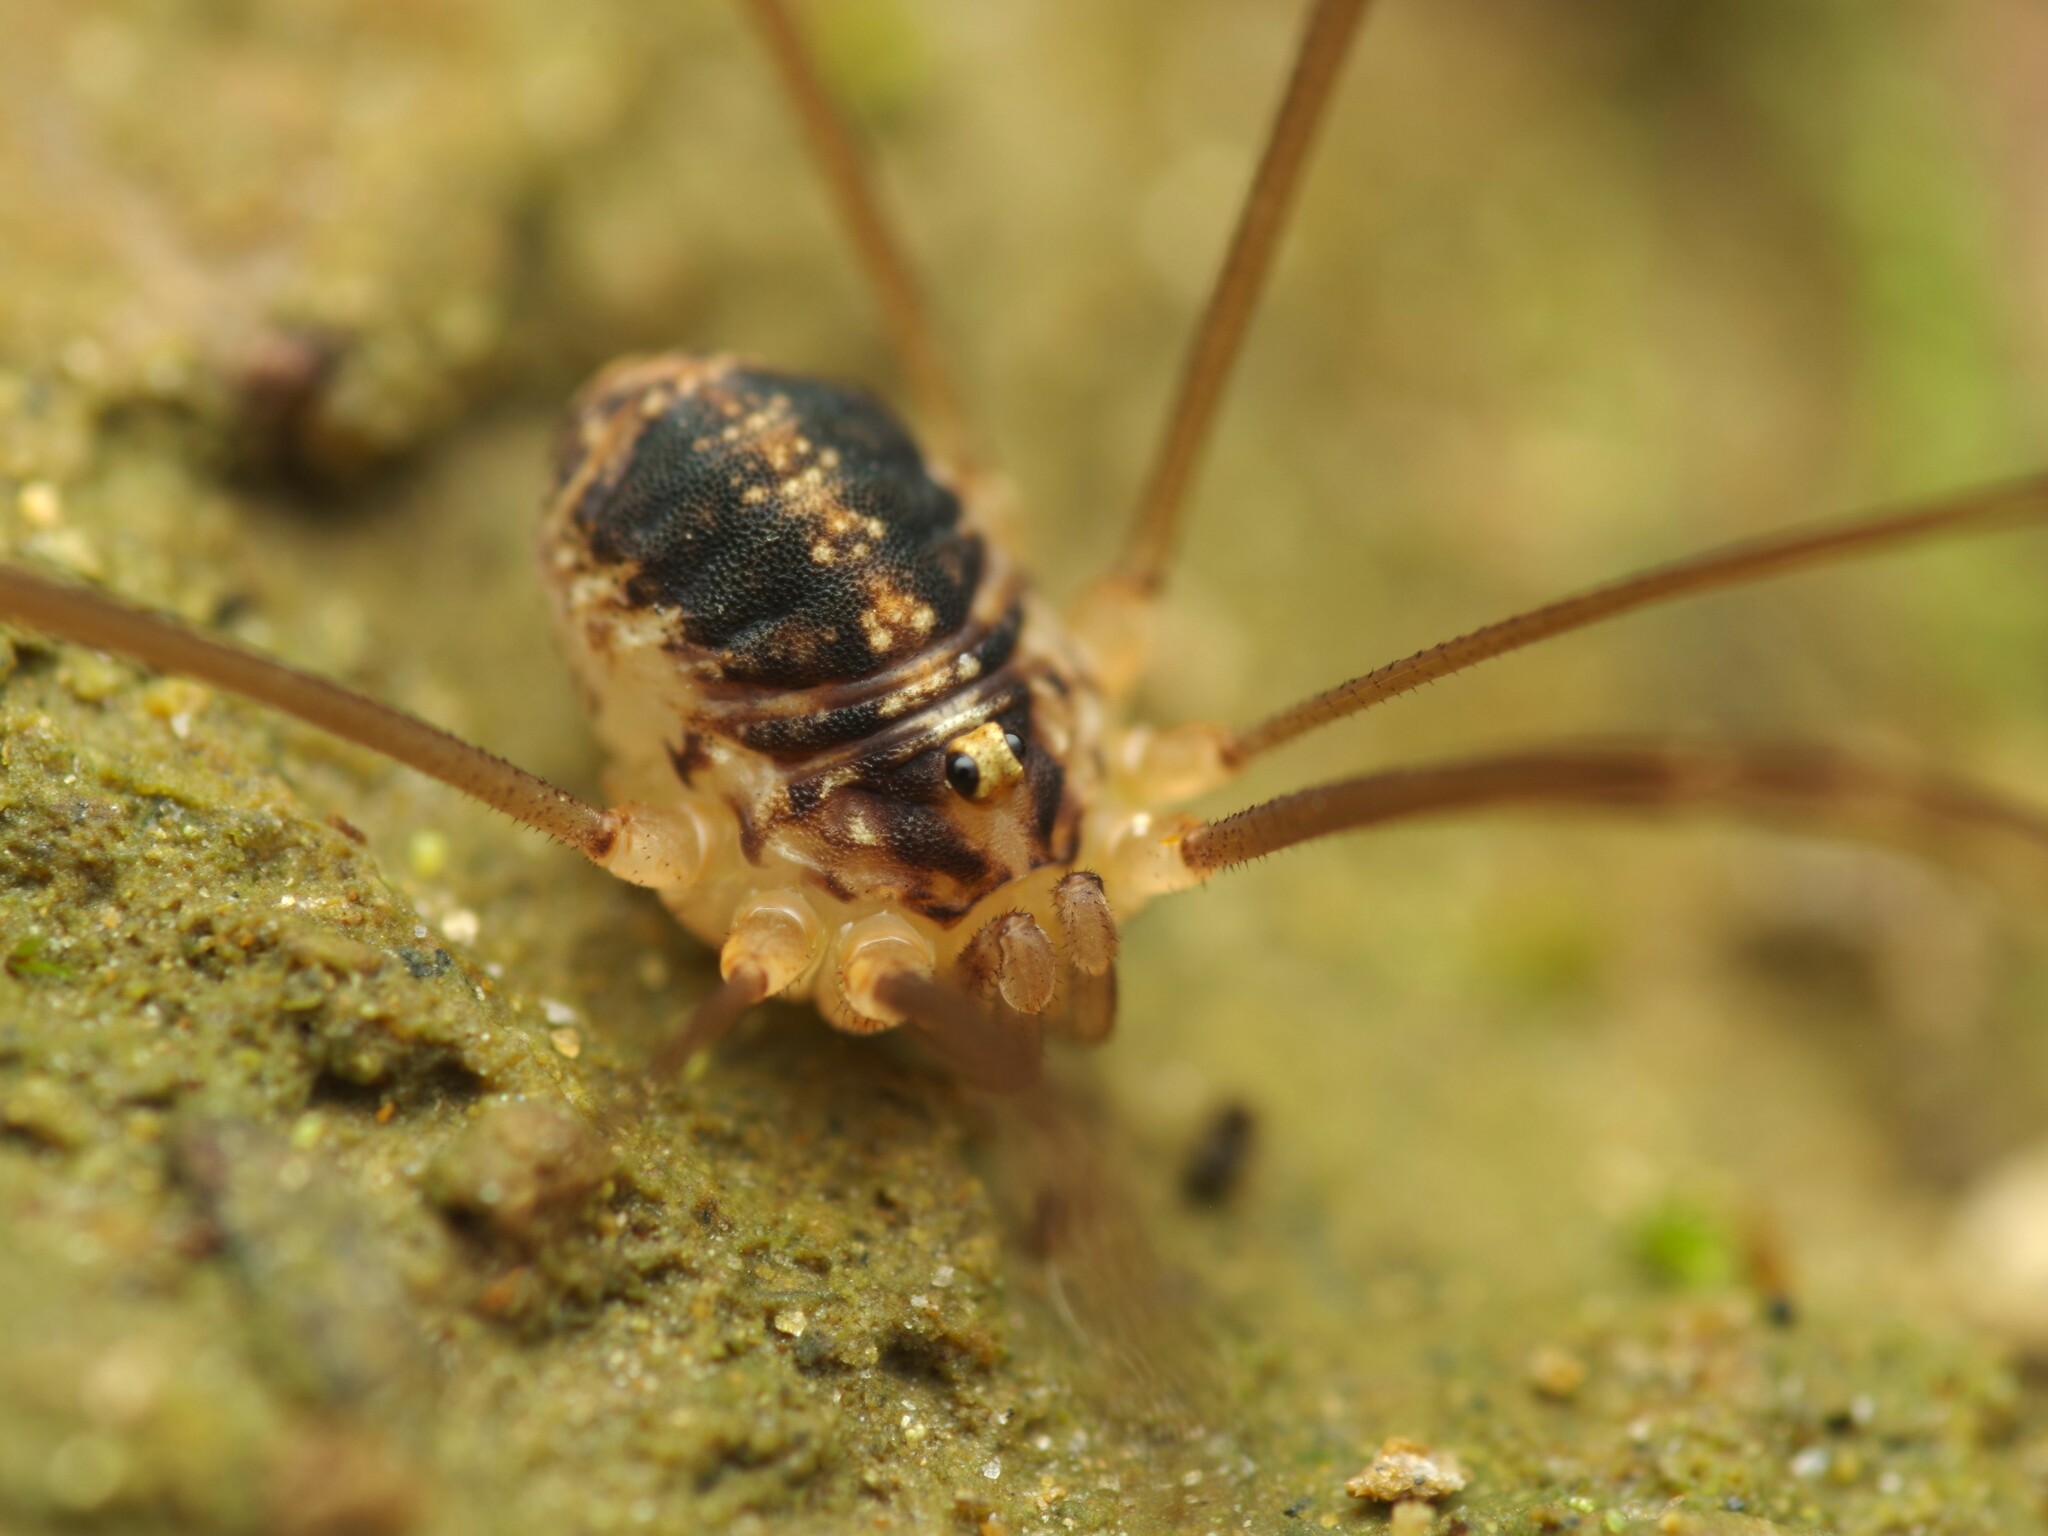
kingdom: Animalia
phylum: Arthropoda
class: Arachnida
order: Opiliones
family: Sclerosomatidae
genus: Nelima
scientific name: Nelima silvatica
